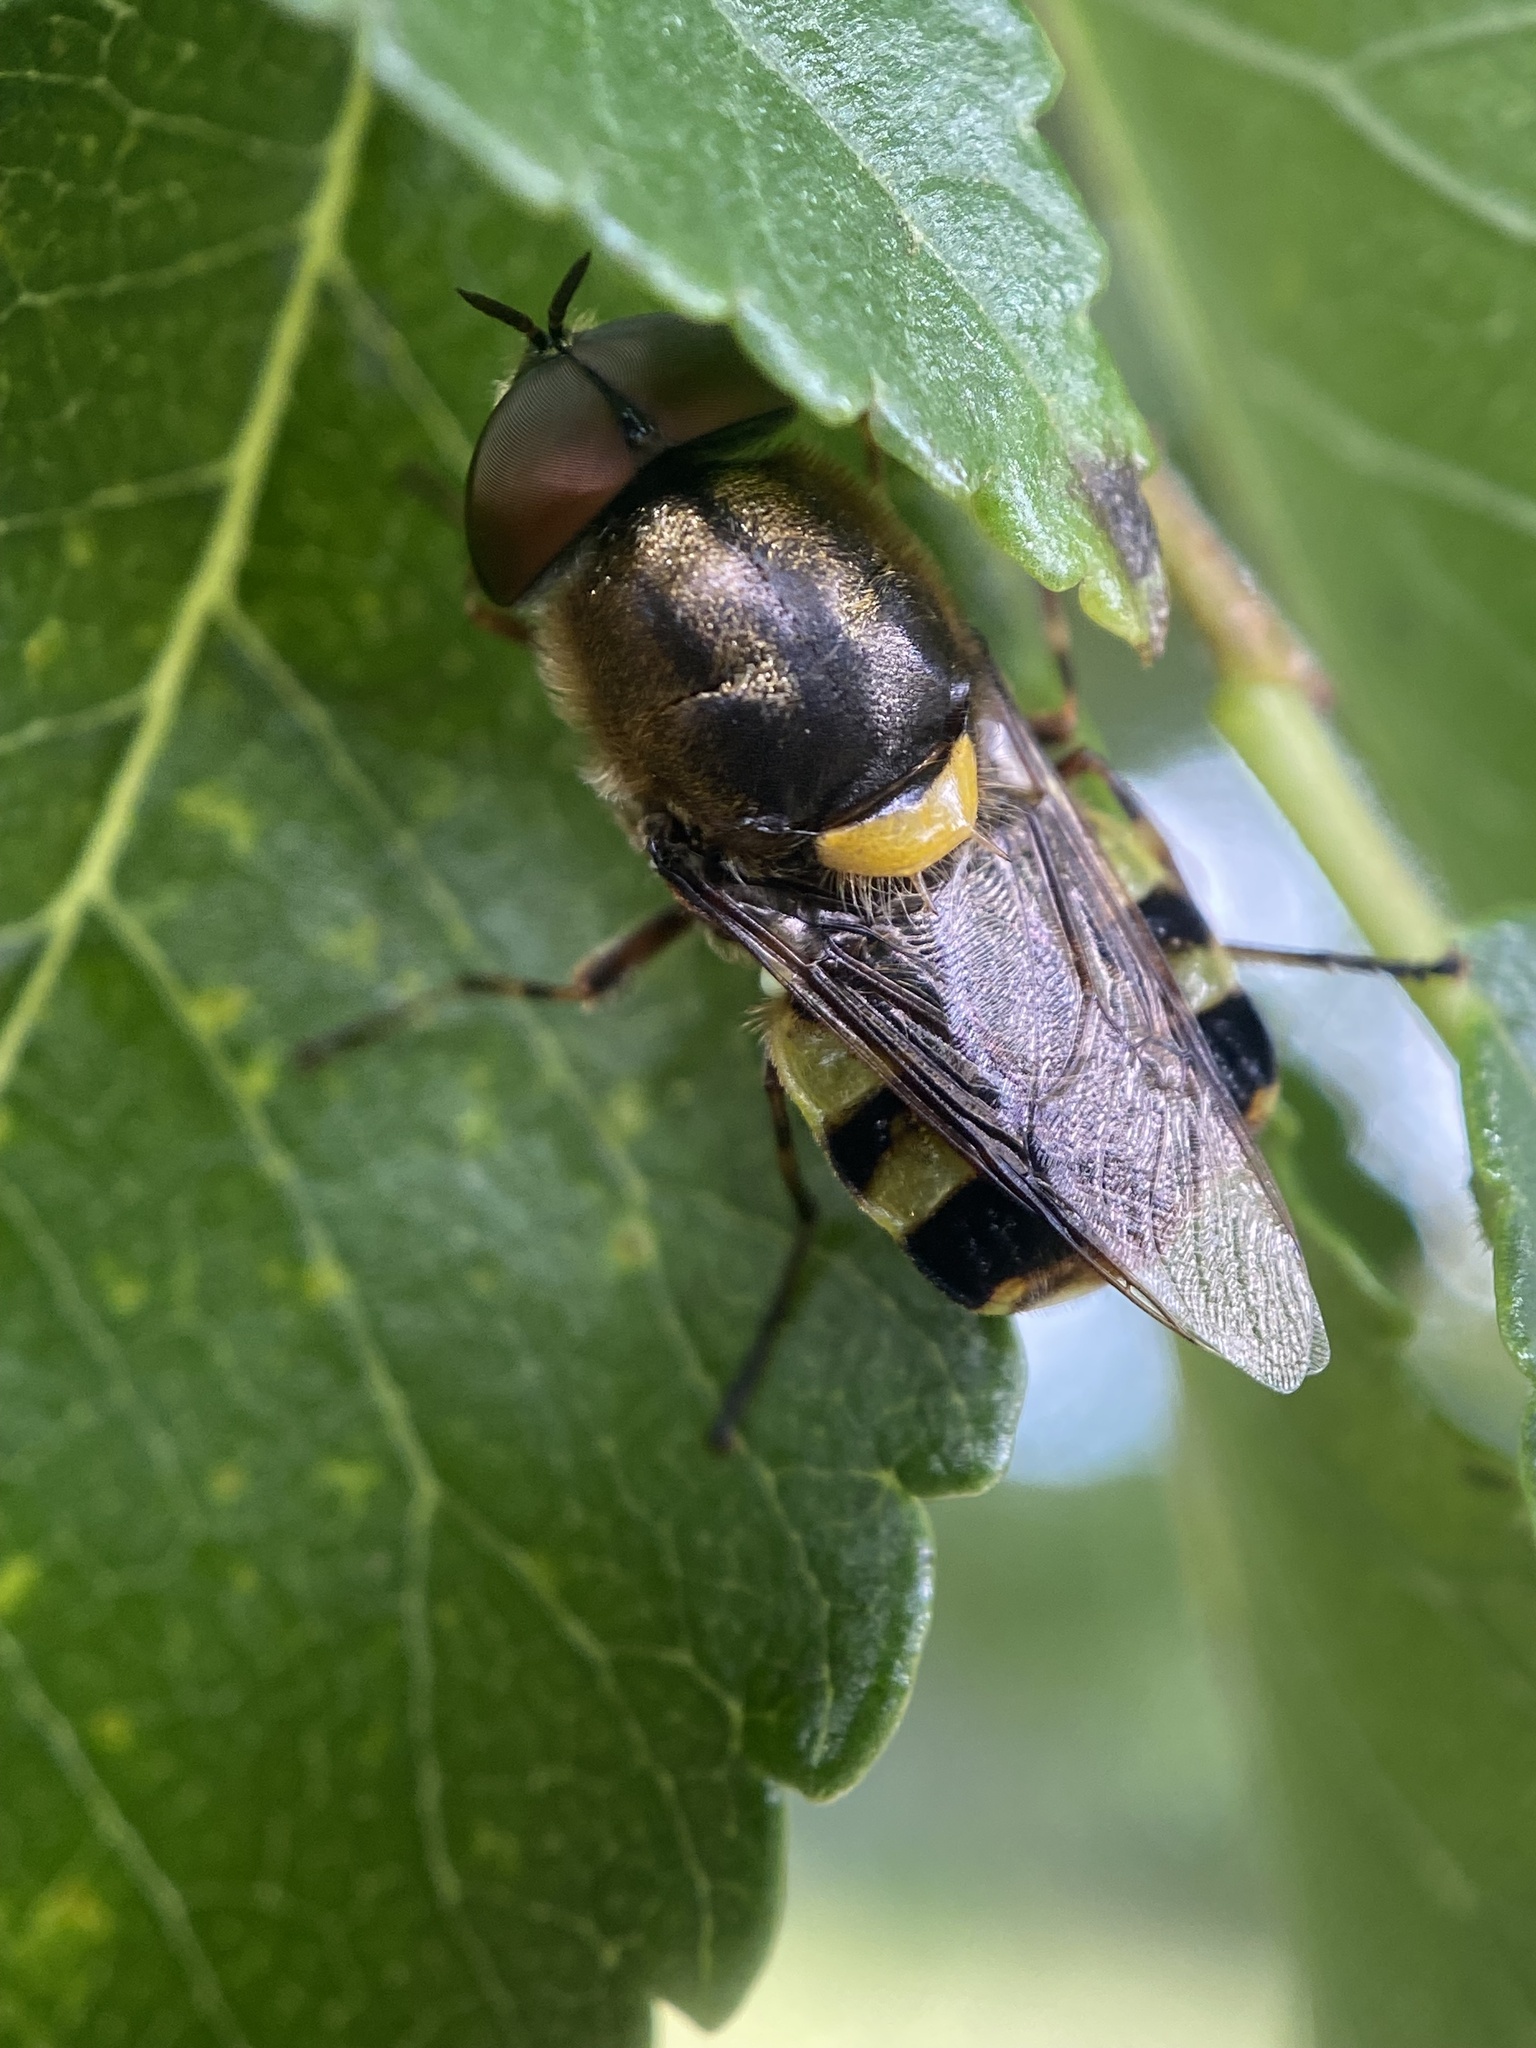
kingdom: Animalia
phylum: Arthropoda
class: Insecta
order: Diptera
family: Stratiomyidae
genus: Odontomyia
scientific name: Odontomyia hunteri
